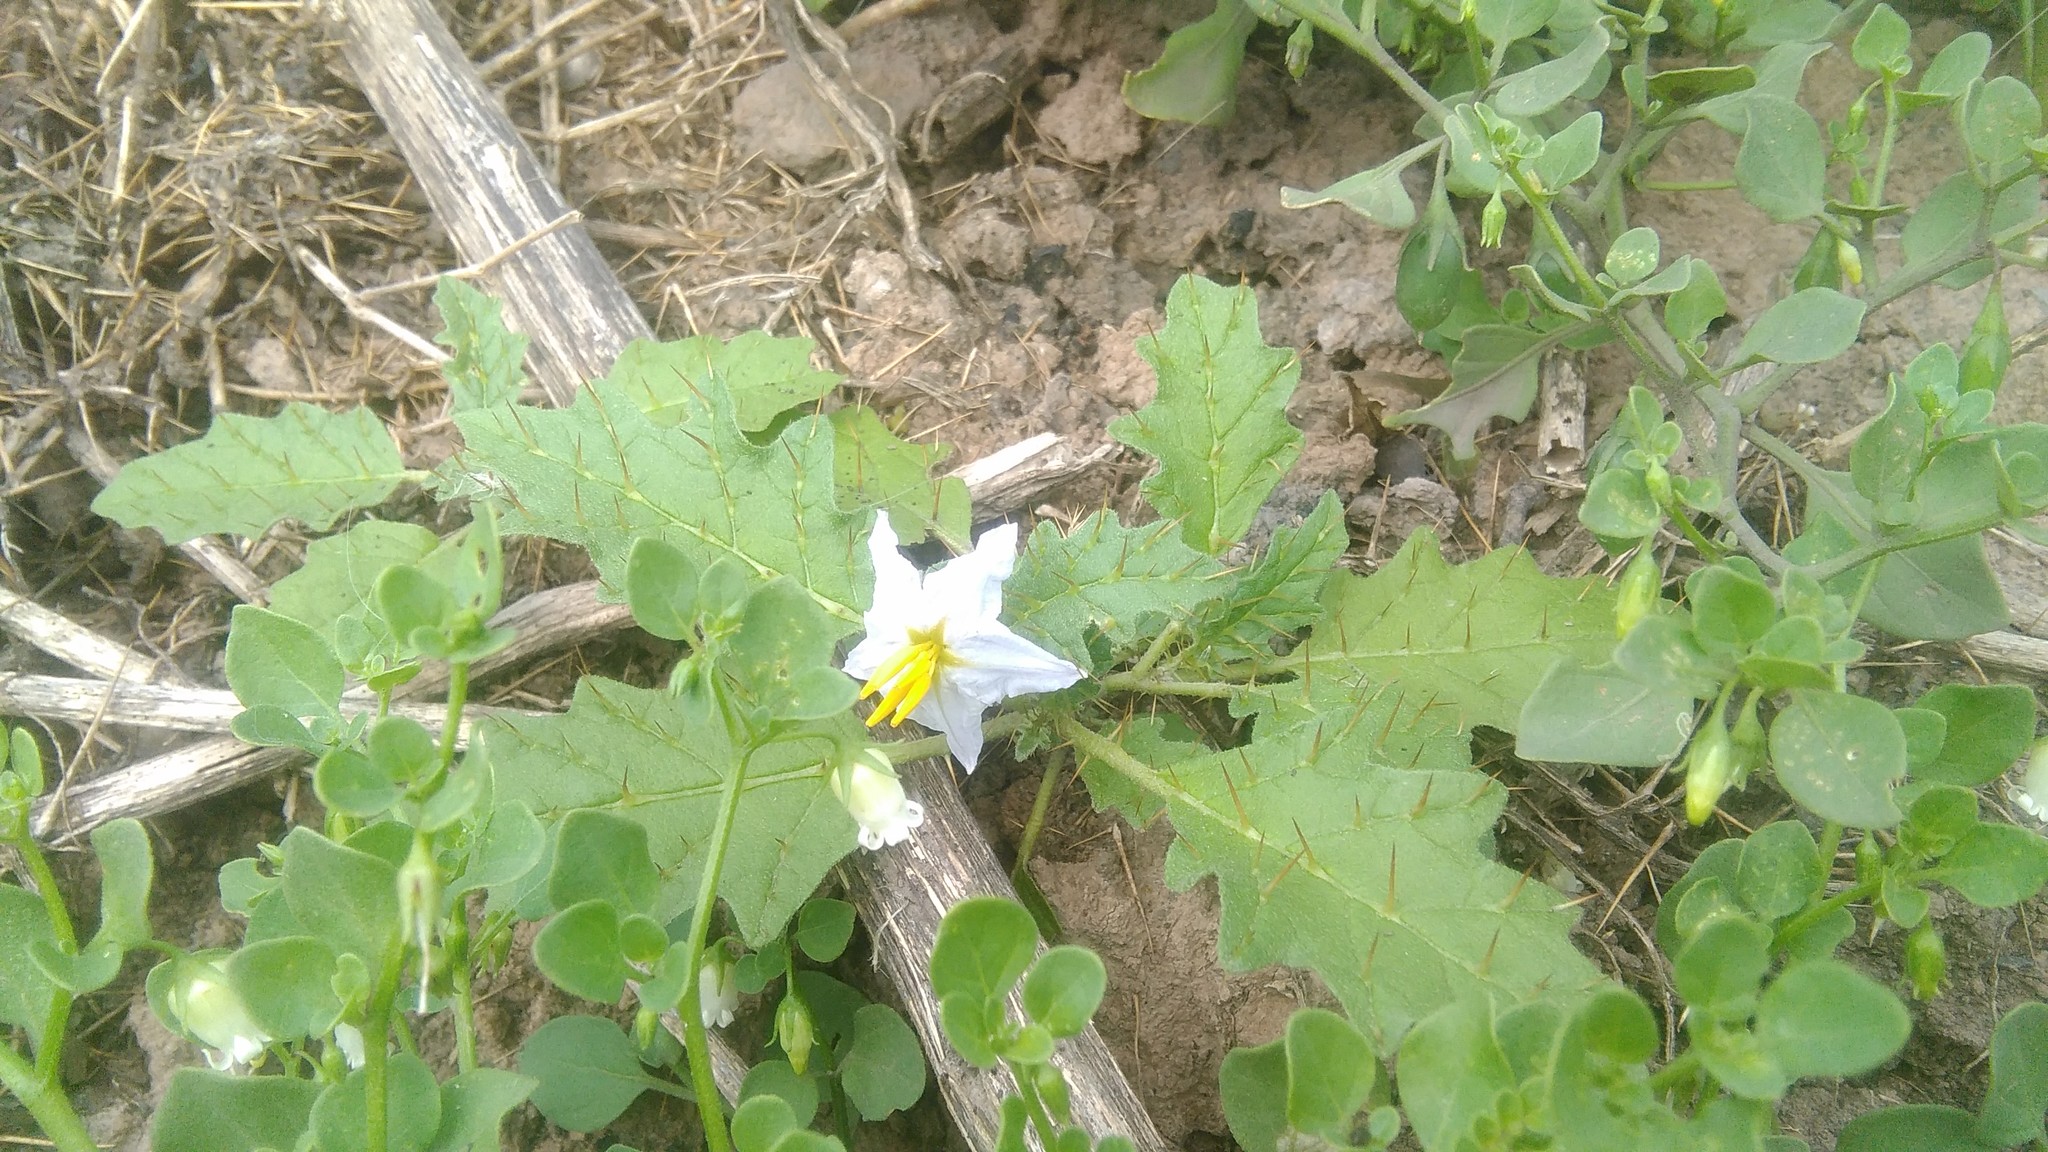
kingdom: Plantae
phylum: Tracheophyta
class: Magnoliopsida
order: Solanales
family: Solanaceae
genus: Solanum
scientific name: Solanum juvenale
